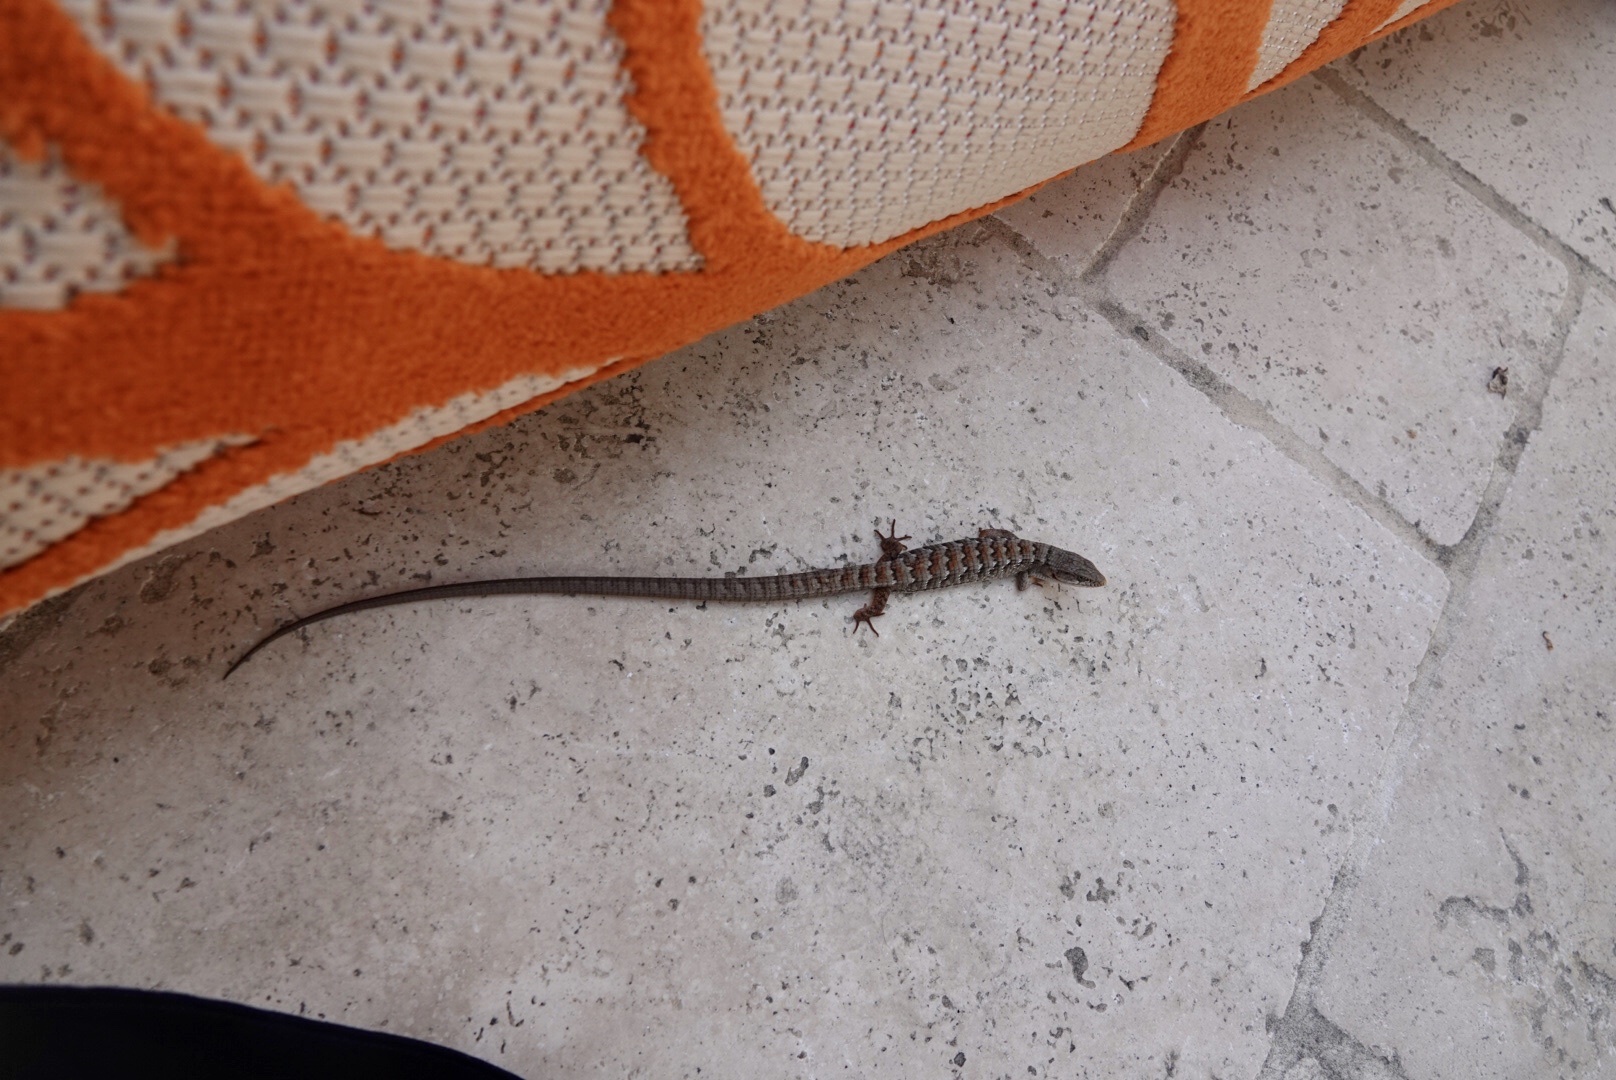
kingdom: Animalia
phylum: Chordata
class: Squamata
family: Anguidae
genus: Elgaria
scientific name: Elgaria multicarinata
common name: Southern alligator lizard
